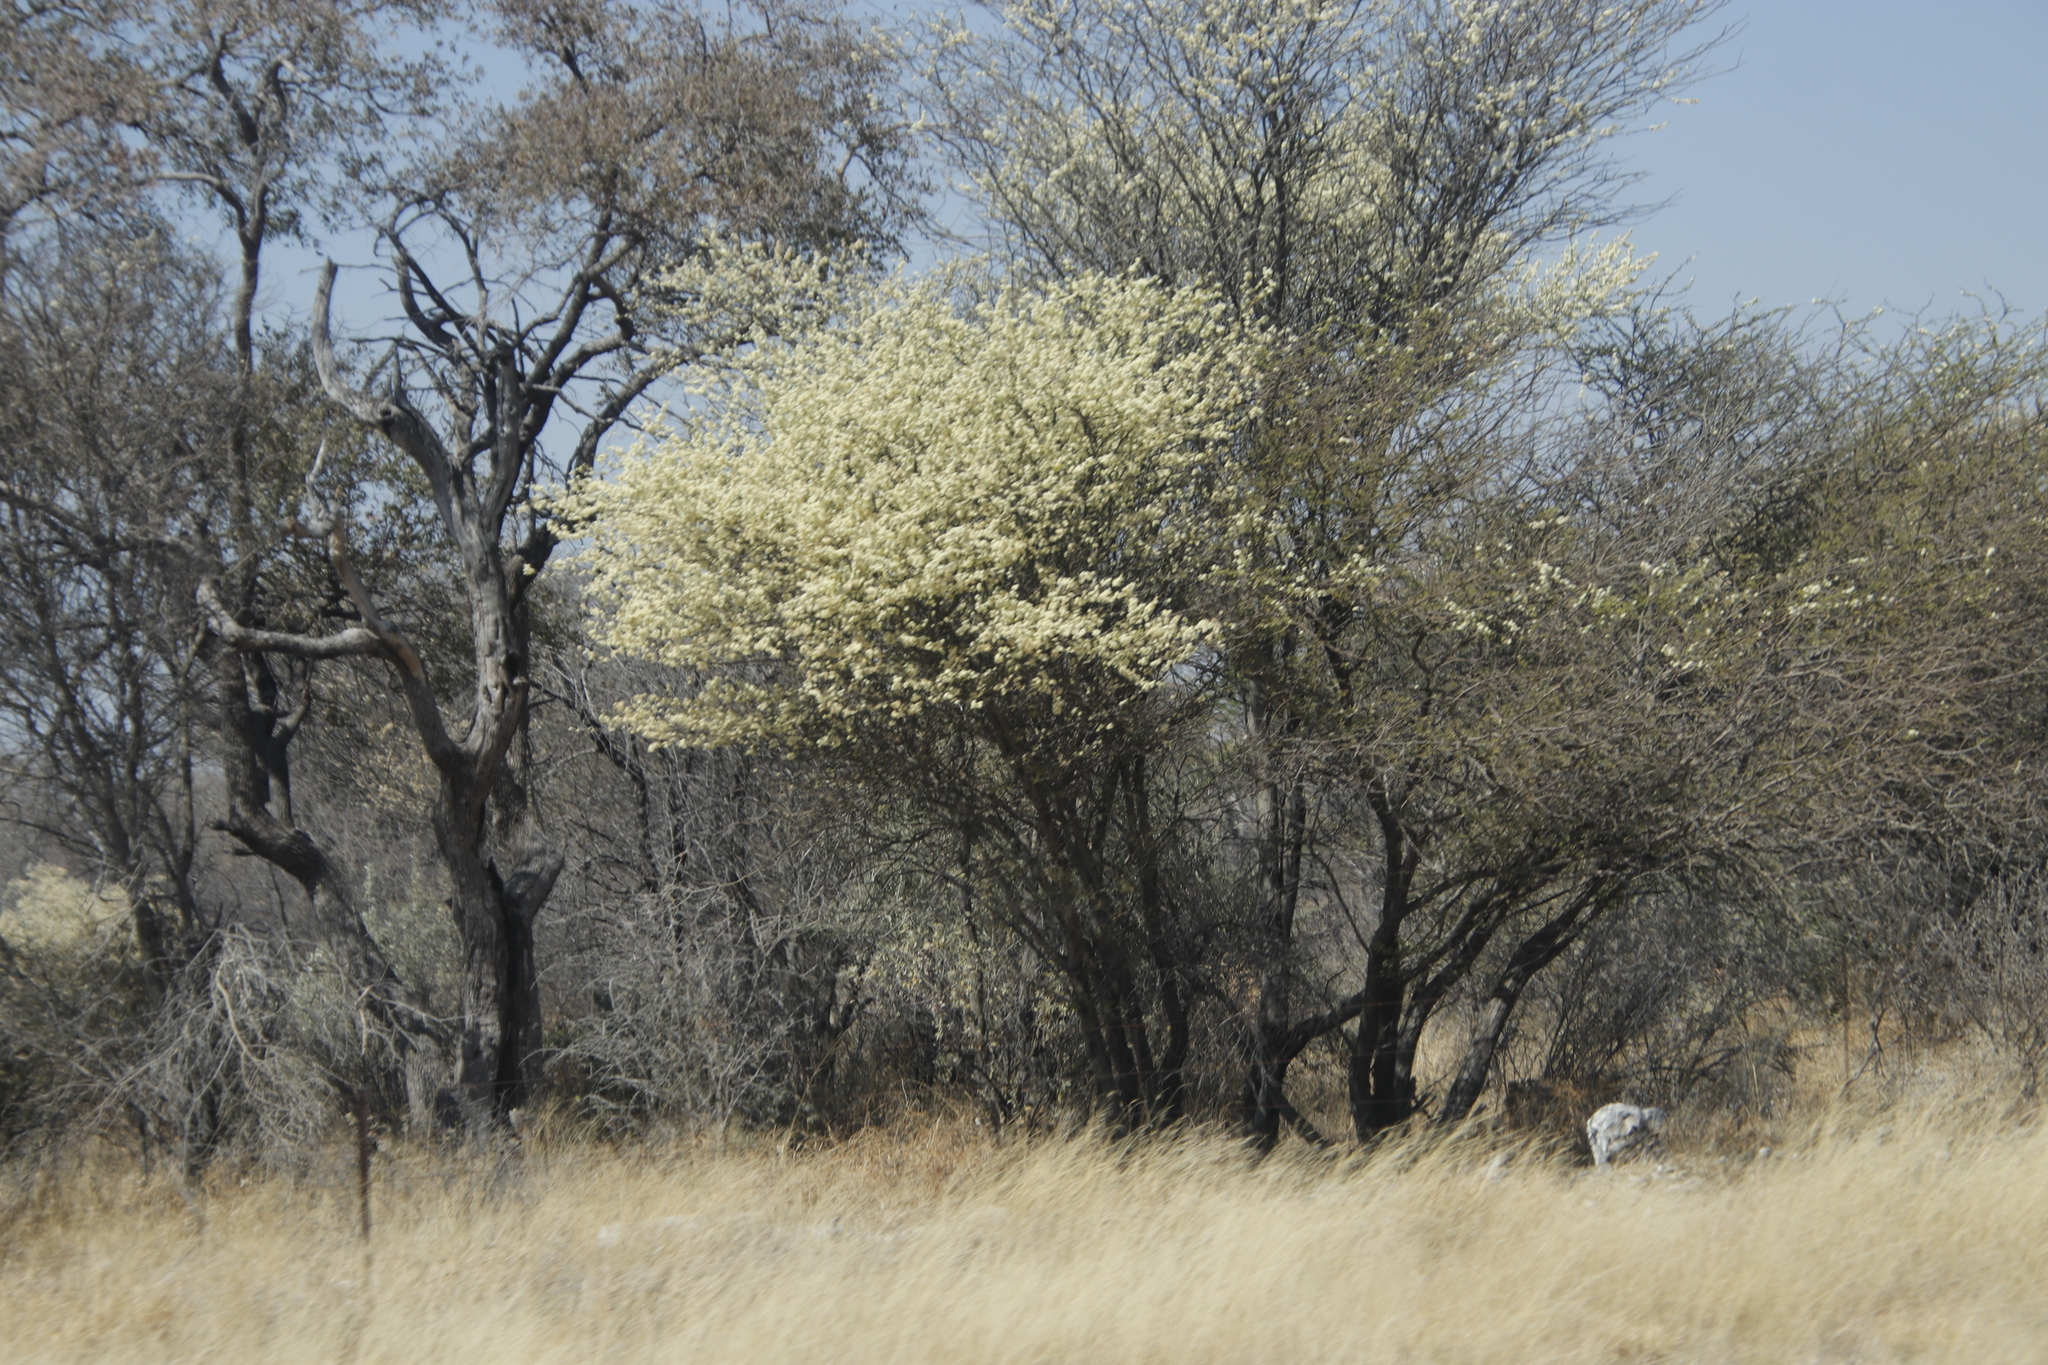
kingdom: Plantae
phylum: Tracheophyta
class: Magnoliopsida
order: Fabales
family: Fabaceae
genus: Senegalia
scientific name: Senegalia mellifera
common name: Hookthorn
